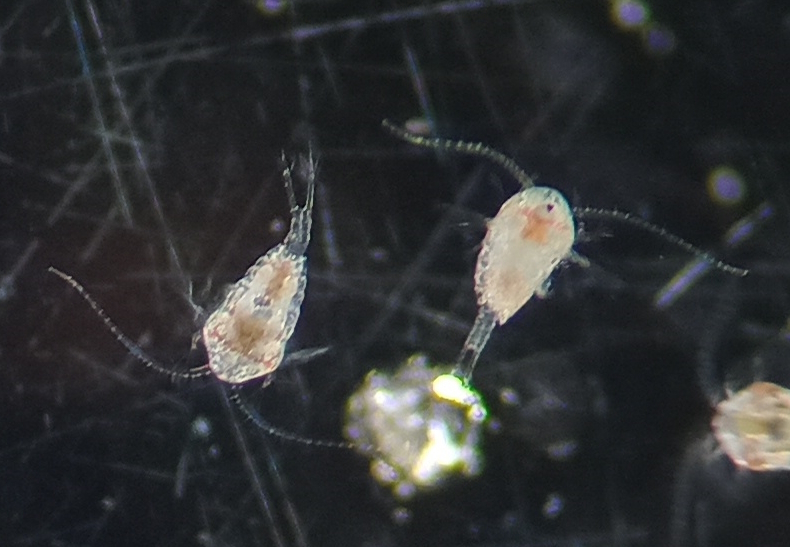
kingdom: Animalia
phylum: Arthropoda
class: Copepoda
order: Calanoida
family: Temoridae
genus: Temora
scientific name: Temora turbinata
